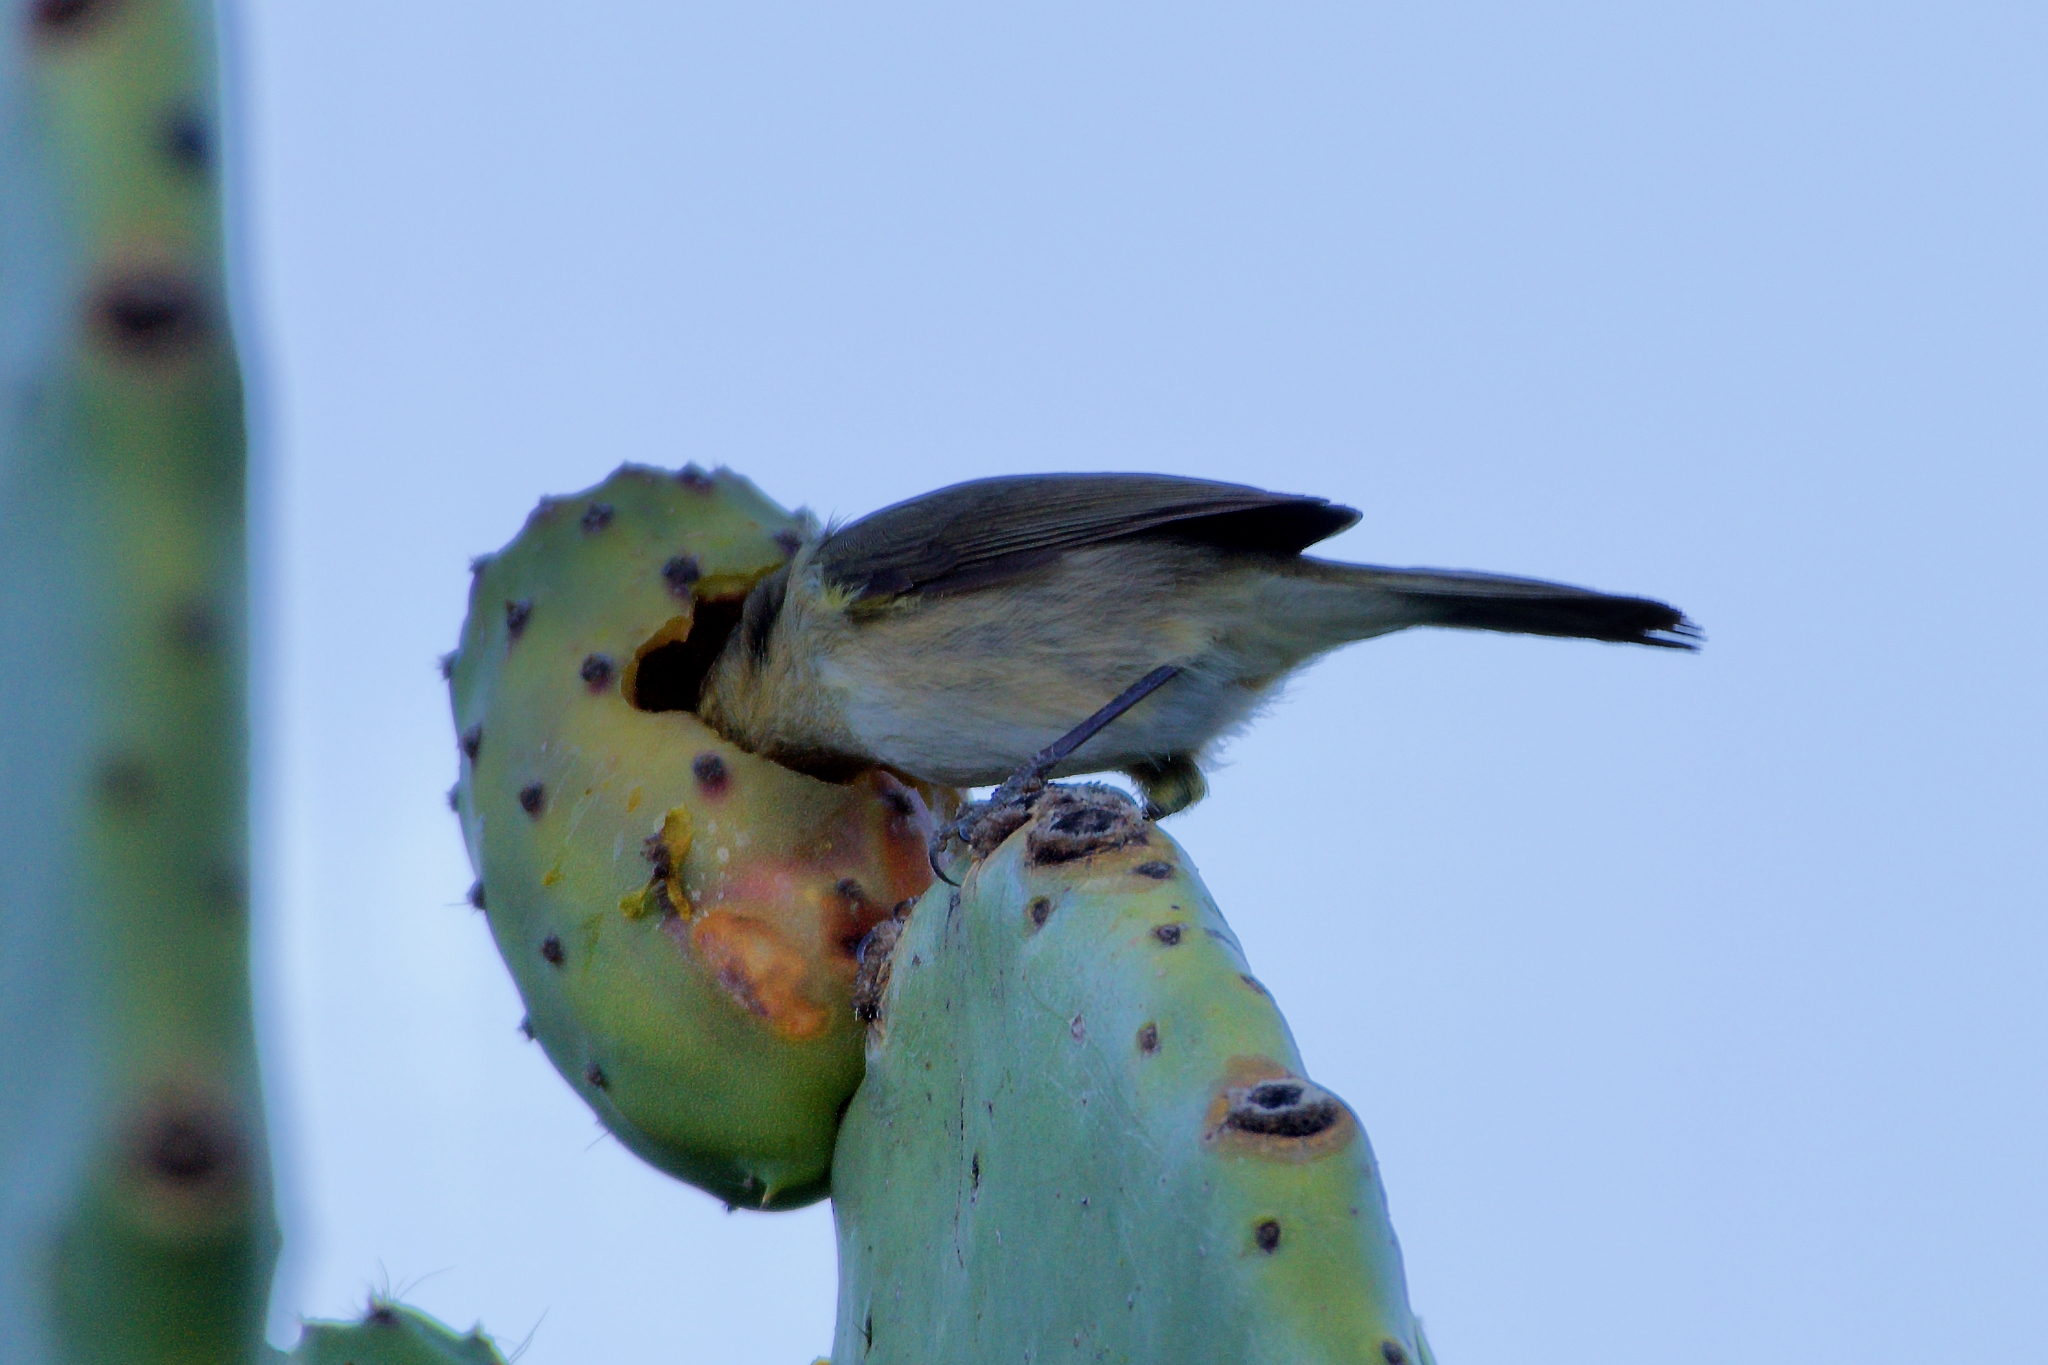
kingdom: Animalia
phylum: Chordata
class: Aves
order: Passeriformes
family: Phylloscopidae
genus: Phylloscopus
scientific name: Phylloscopus canariensis
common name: Canary islands chiffchaff
